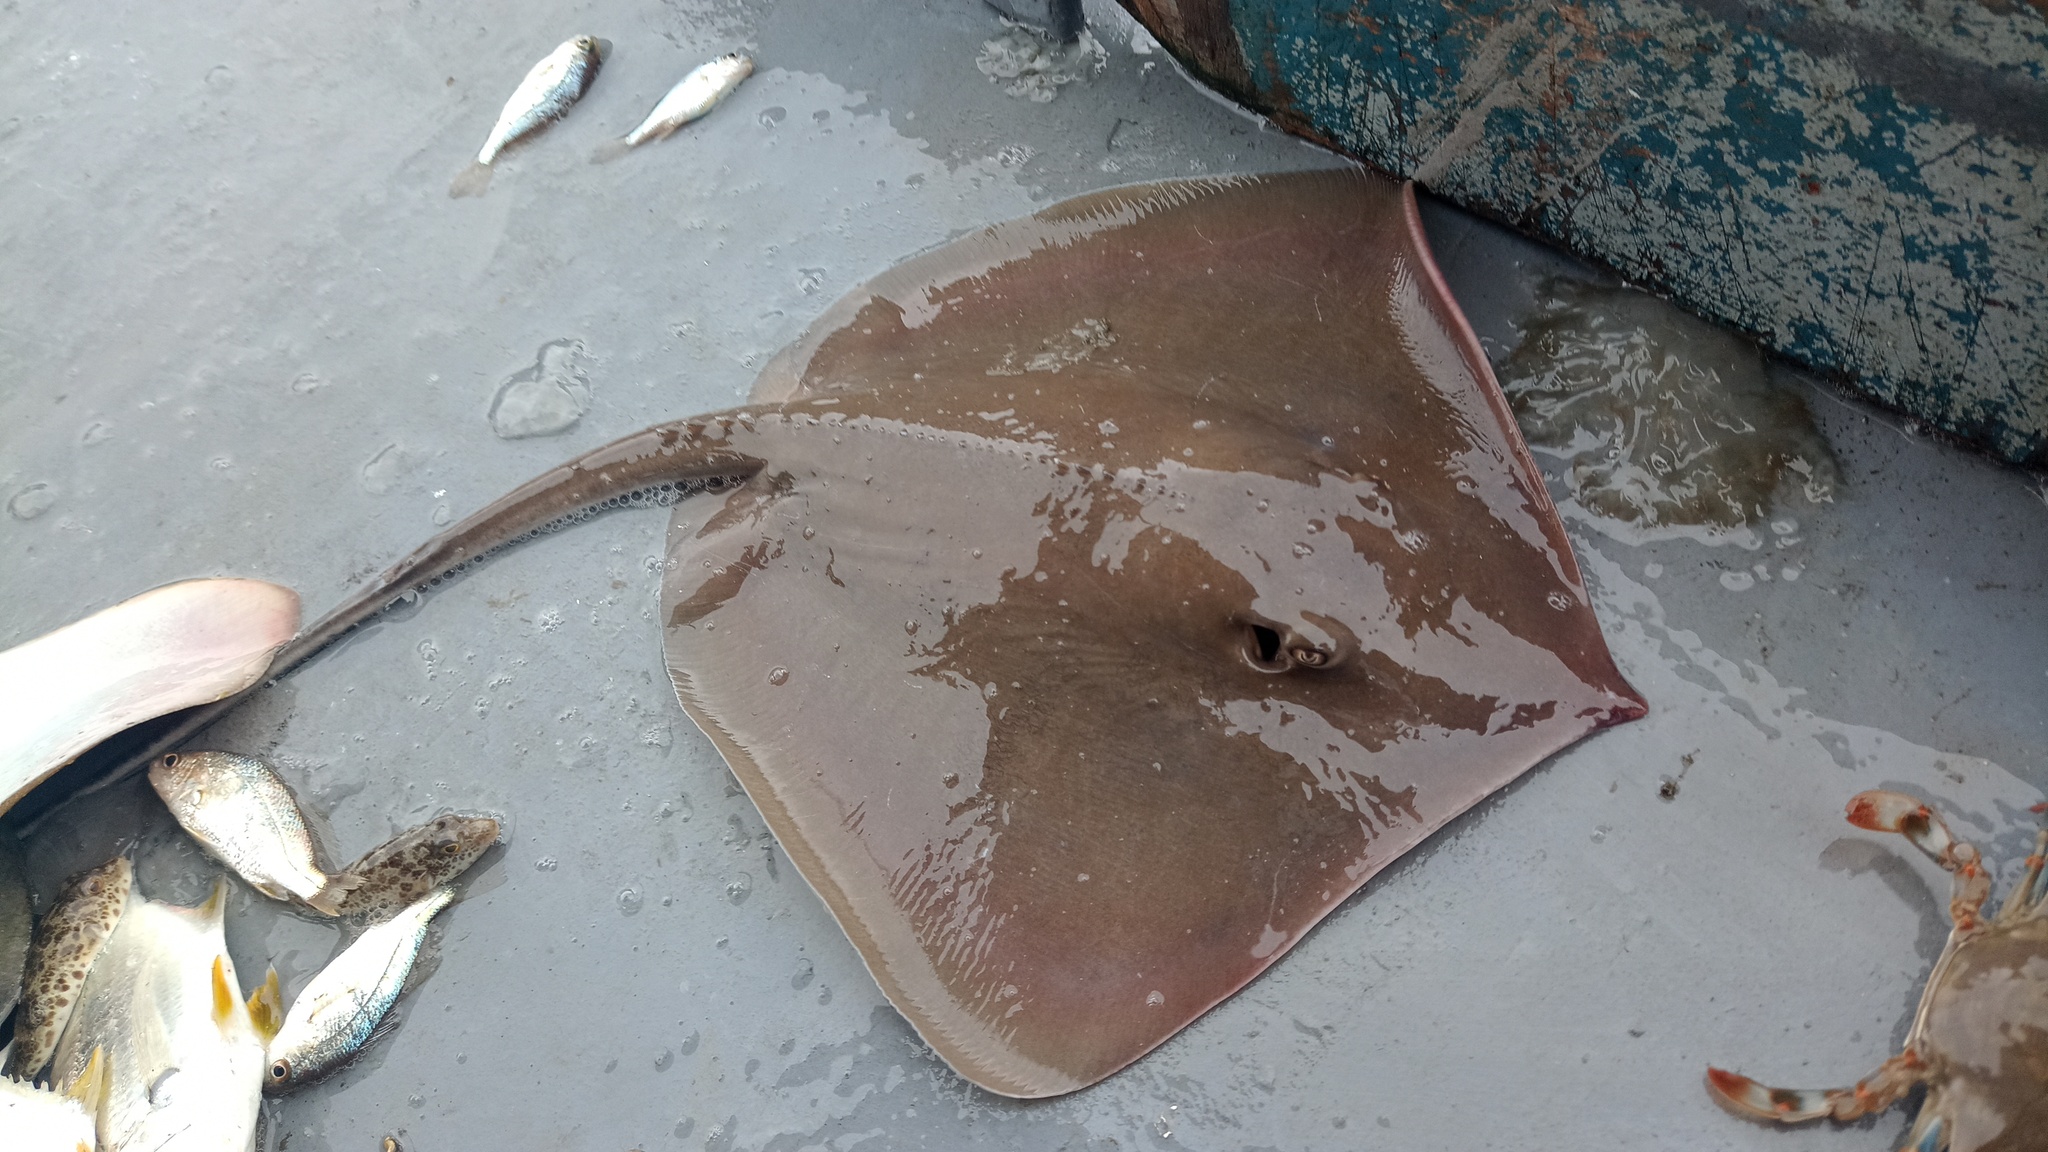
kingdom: Animalia
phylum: Chordata
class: Elasmobranchii
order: Myliobatiformes
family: Dasyatidae
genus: Hypanus
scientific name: Hypanus guttatus
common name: Longnose stingray
